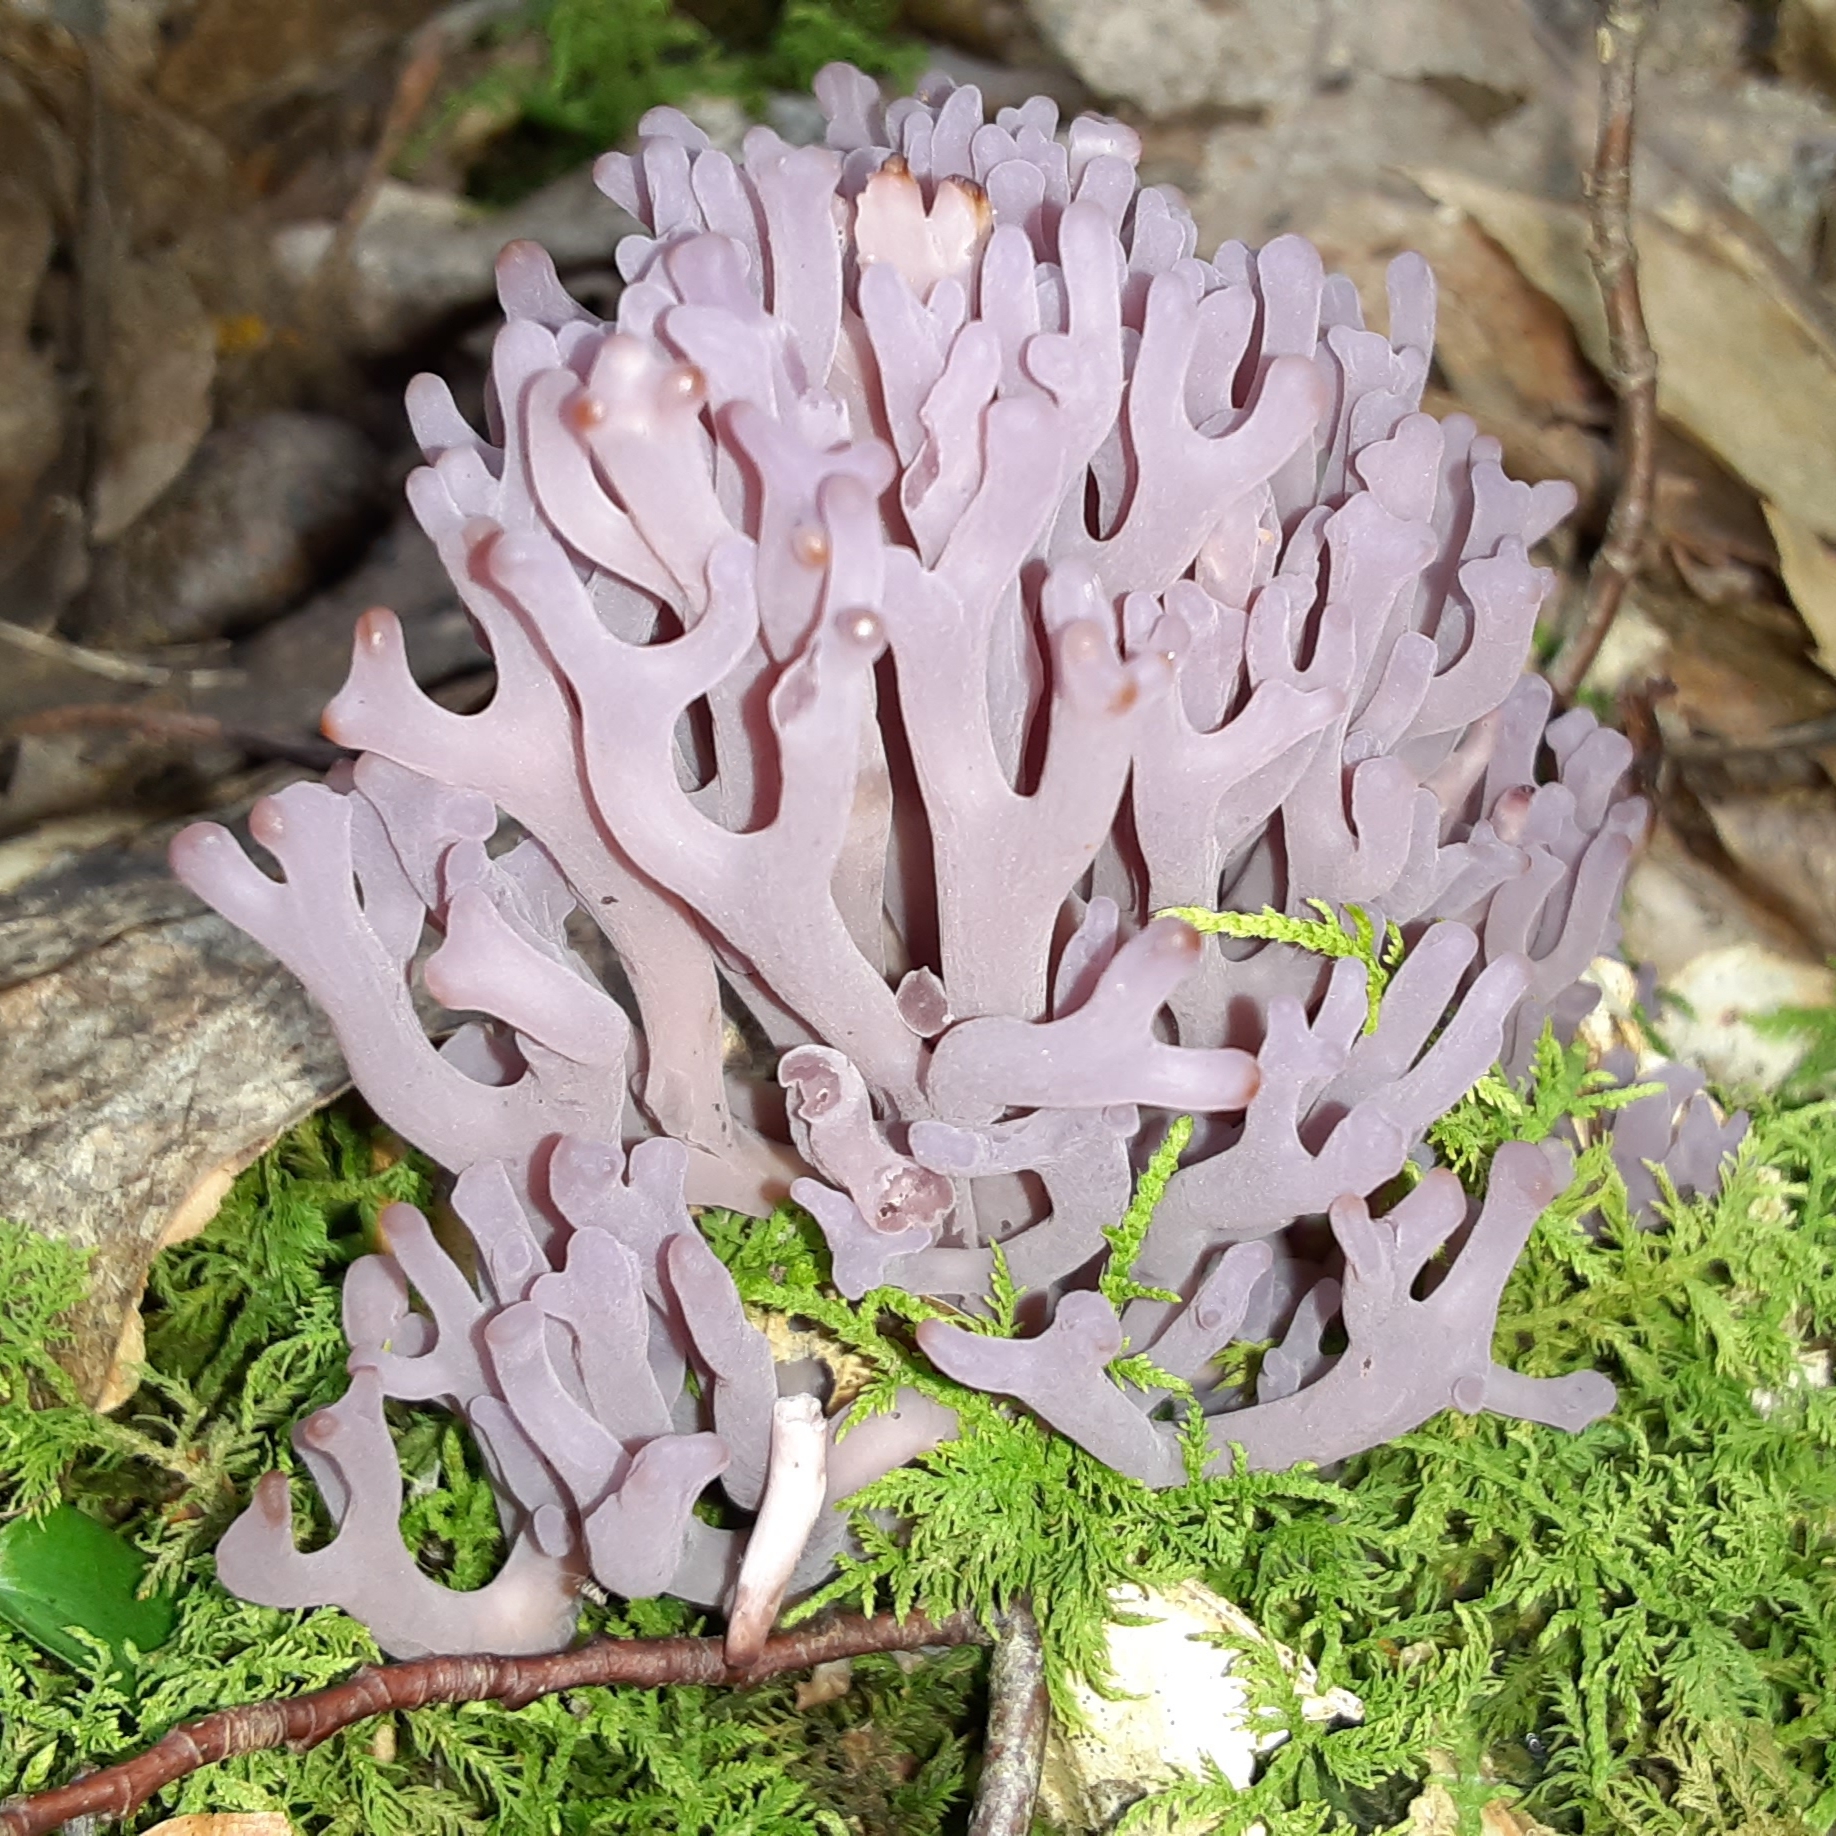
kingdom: Fungi
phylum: Basidiomycota
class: Agaricomycetes
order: Agaricales
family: Clavariaceae
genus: Clavaria
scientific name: Clavaria zollingeri
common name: Violet coral
